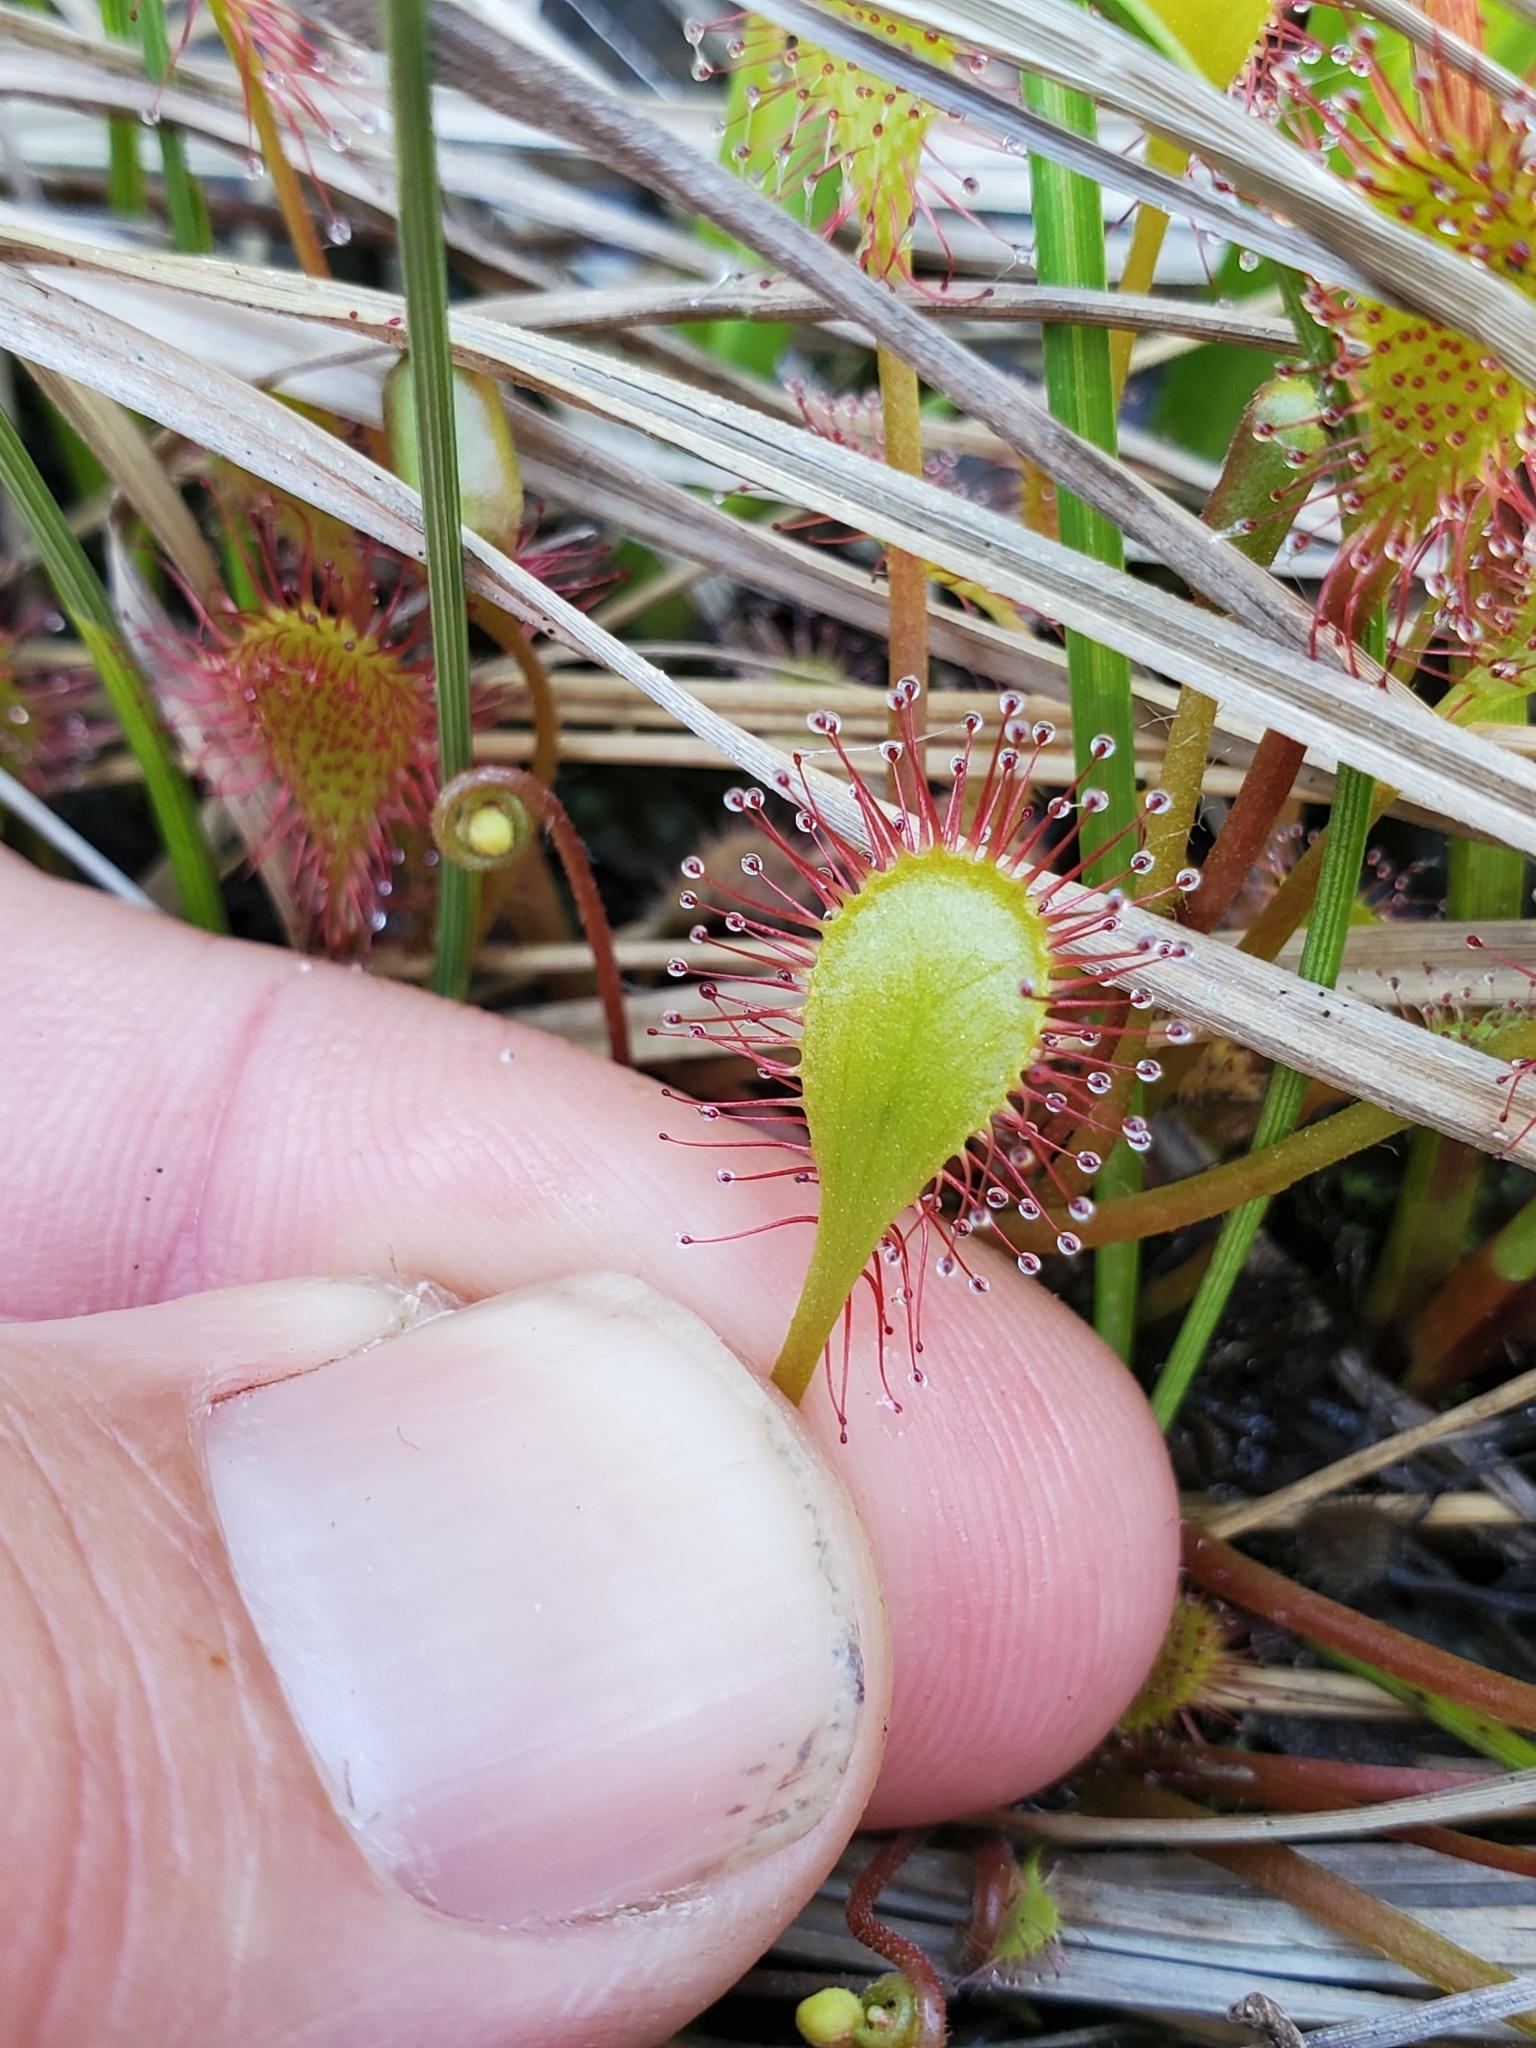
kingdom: Plantae
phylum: Tracheophyta
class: Magnoliopsida
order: Caryophyllales
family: Droseraceae
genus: Drosera
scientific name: Drosera obovata
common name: Ivan's paddle
